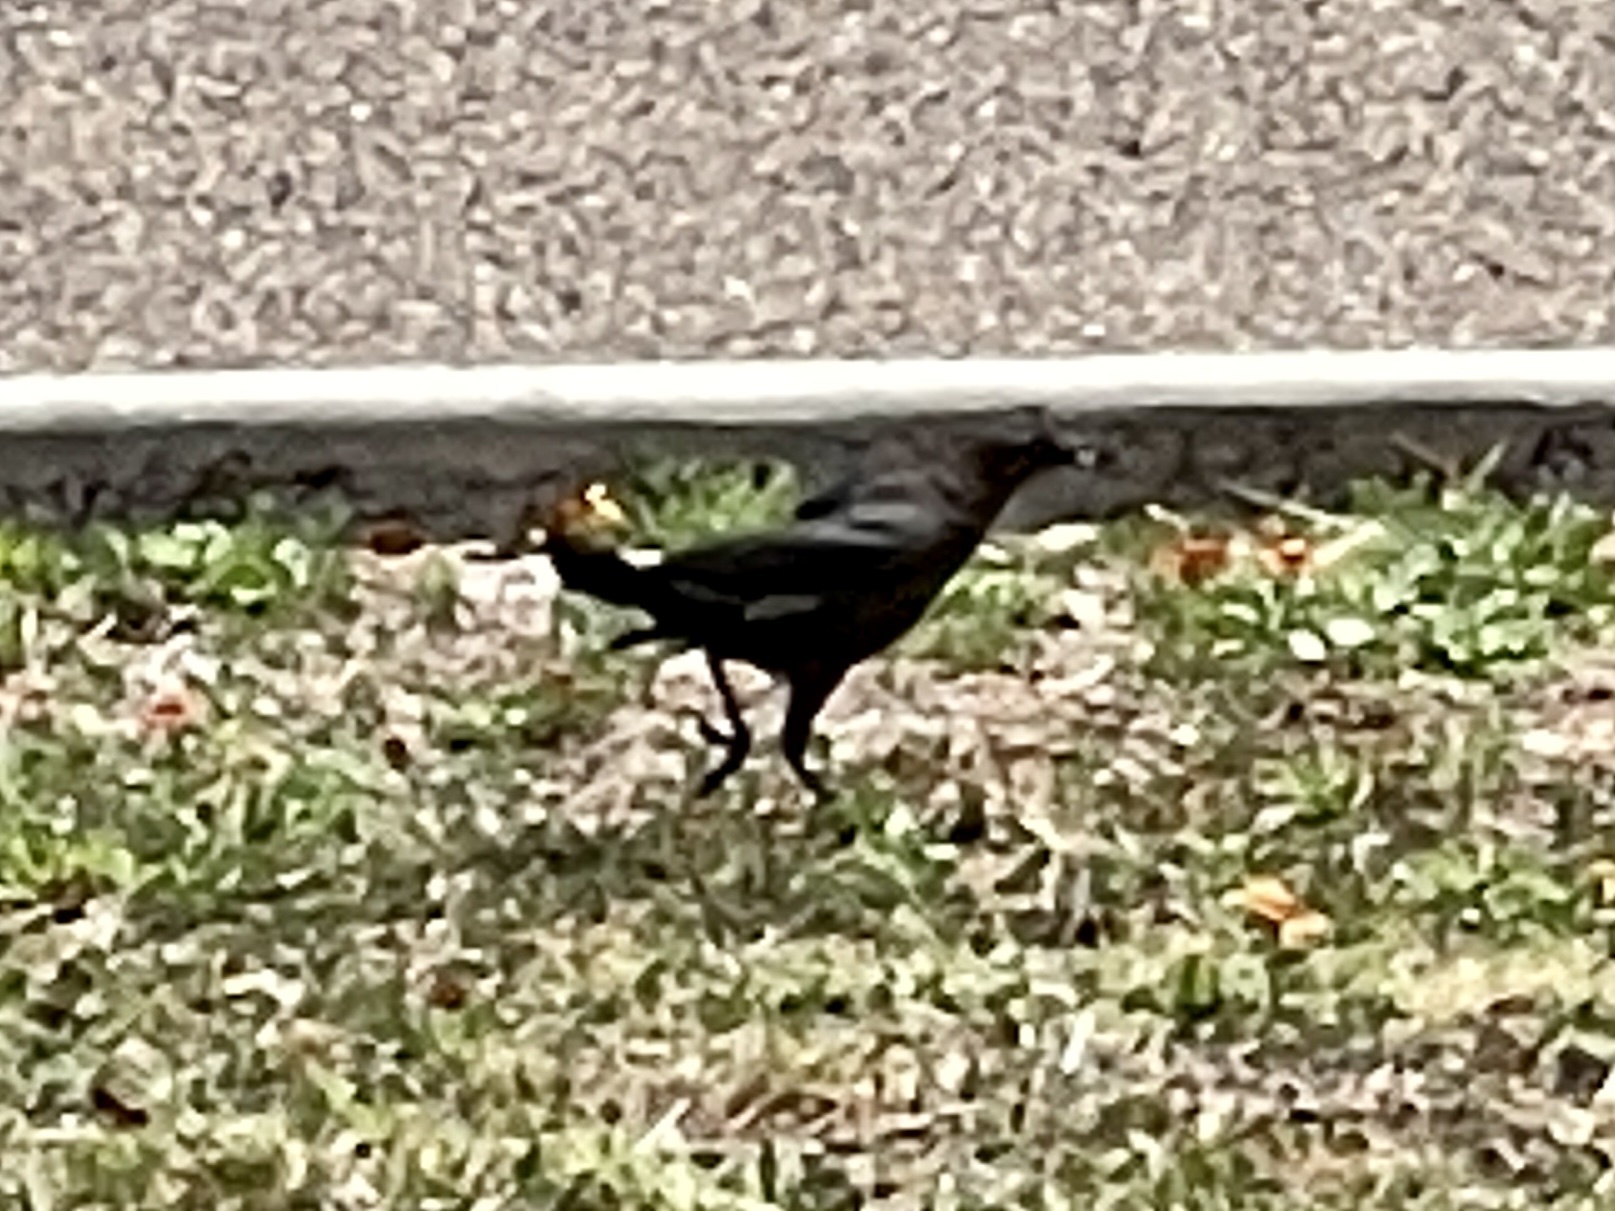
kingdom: Animalia
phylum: Chordata
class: Aves
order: Passeriformes
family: Icteridae
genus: Quiscalus
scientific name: Quiscalus mexicanus
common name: Great-tailed grackle
